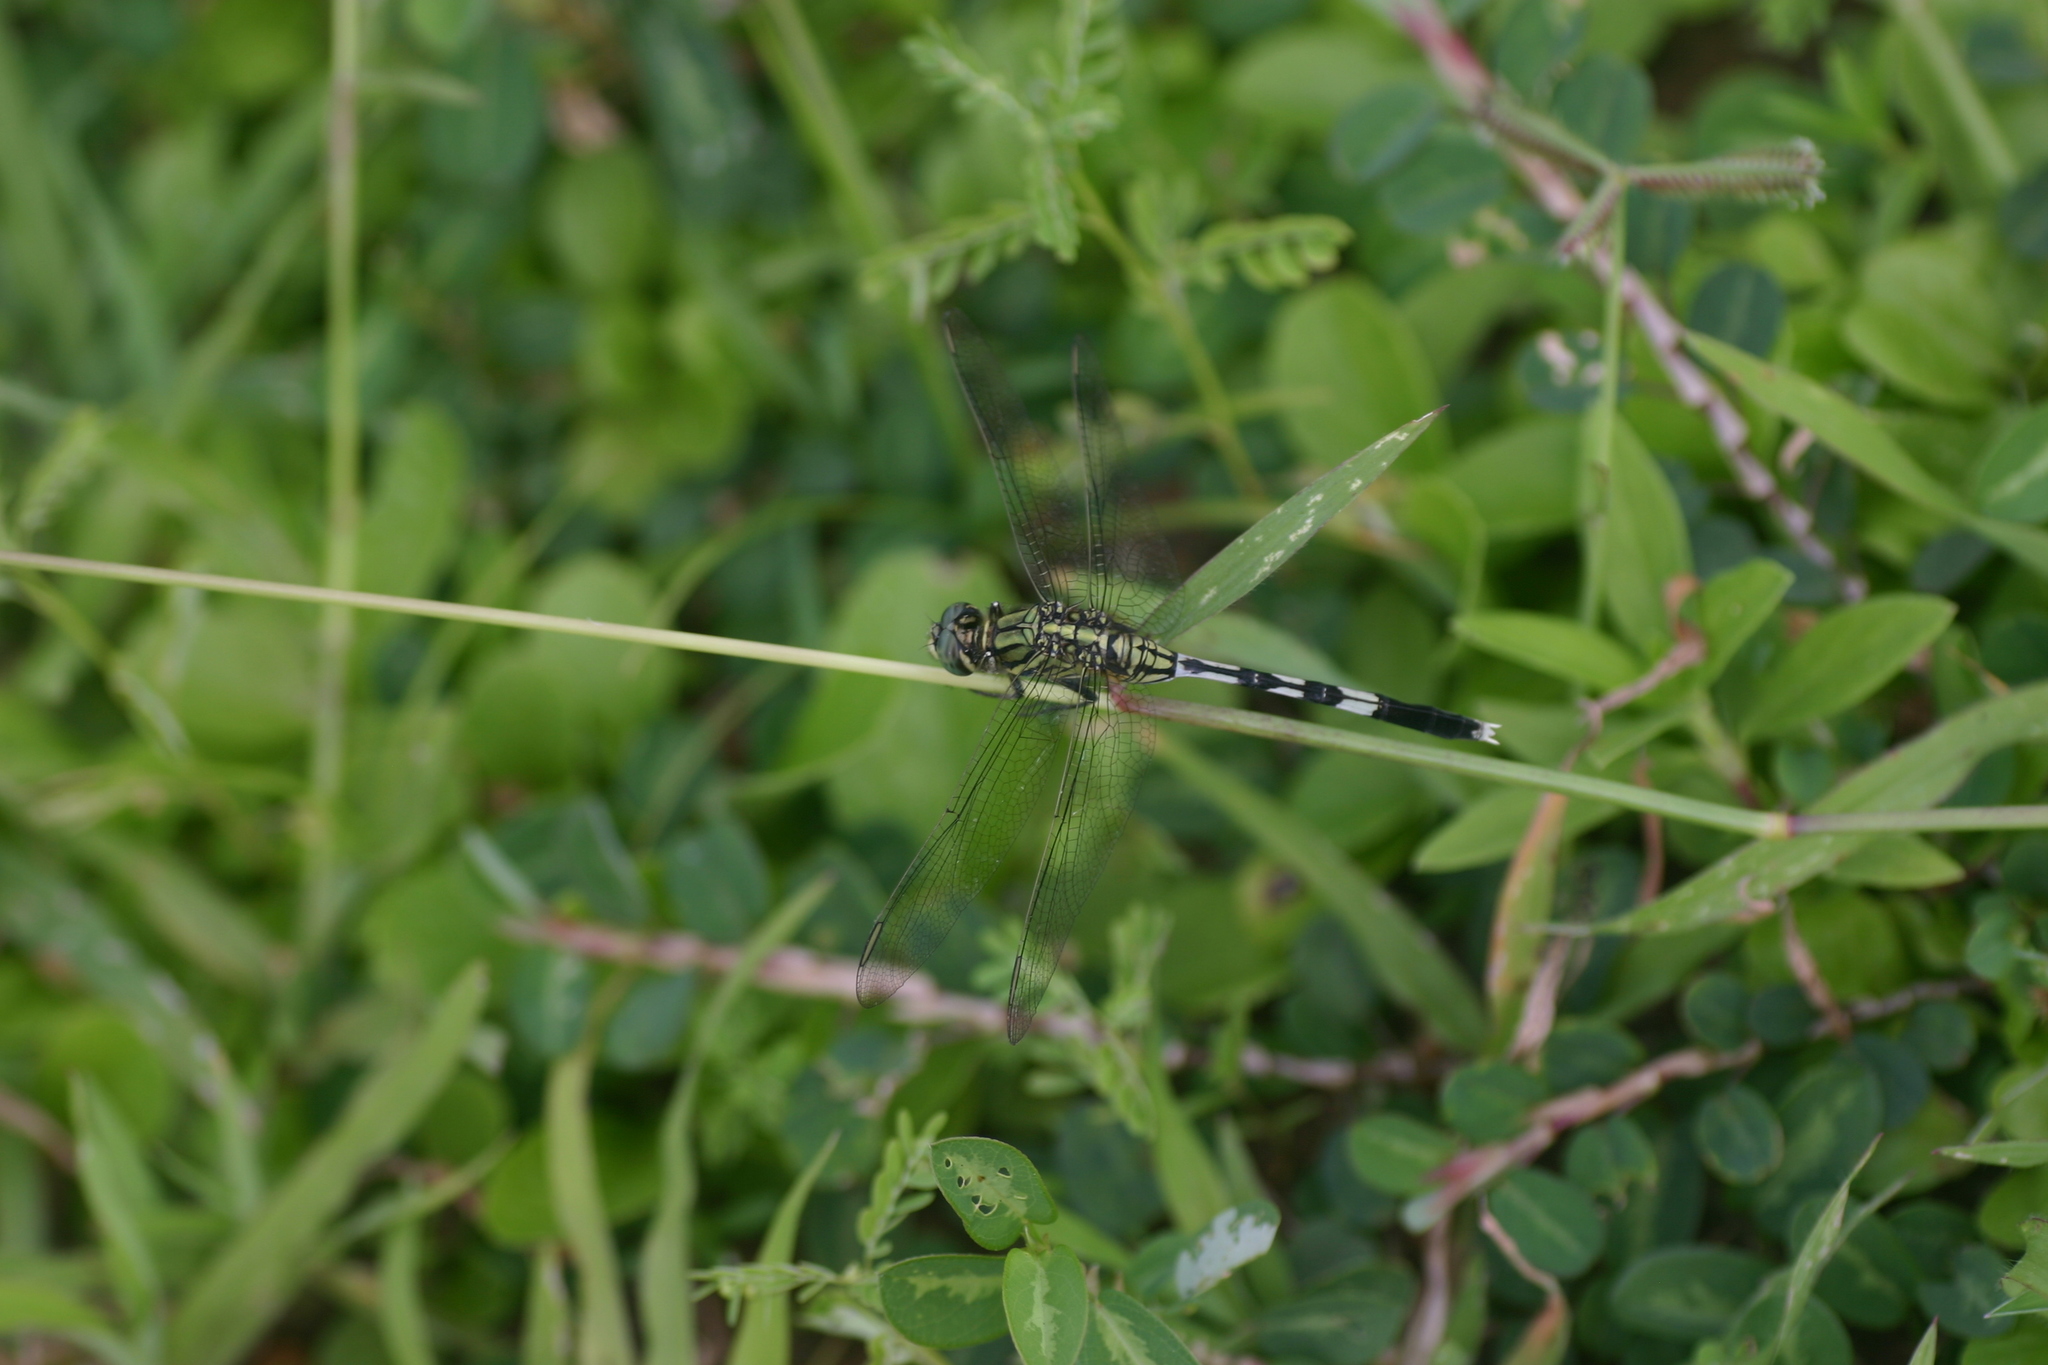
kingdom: Animalia
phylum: Arthropoda
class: Insecta
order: Odonata
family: Libellulidae
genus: Orthetrum
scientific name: Orthetrum sabina
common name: Slender skimmer
